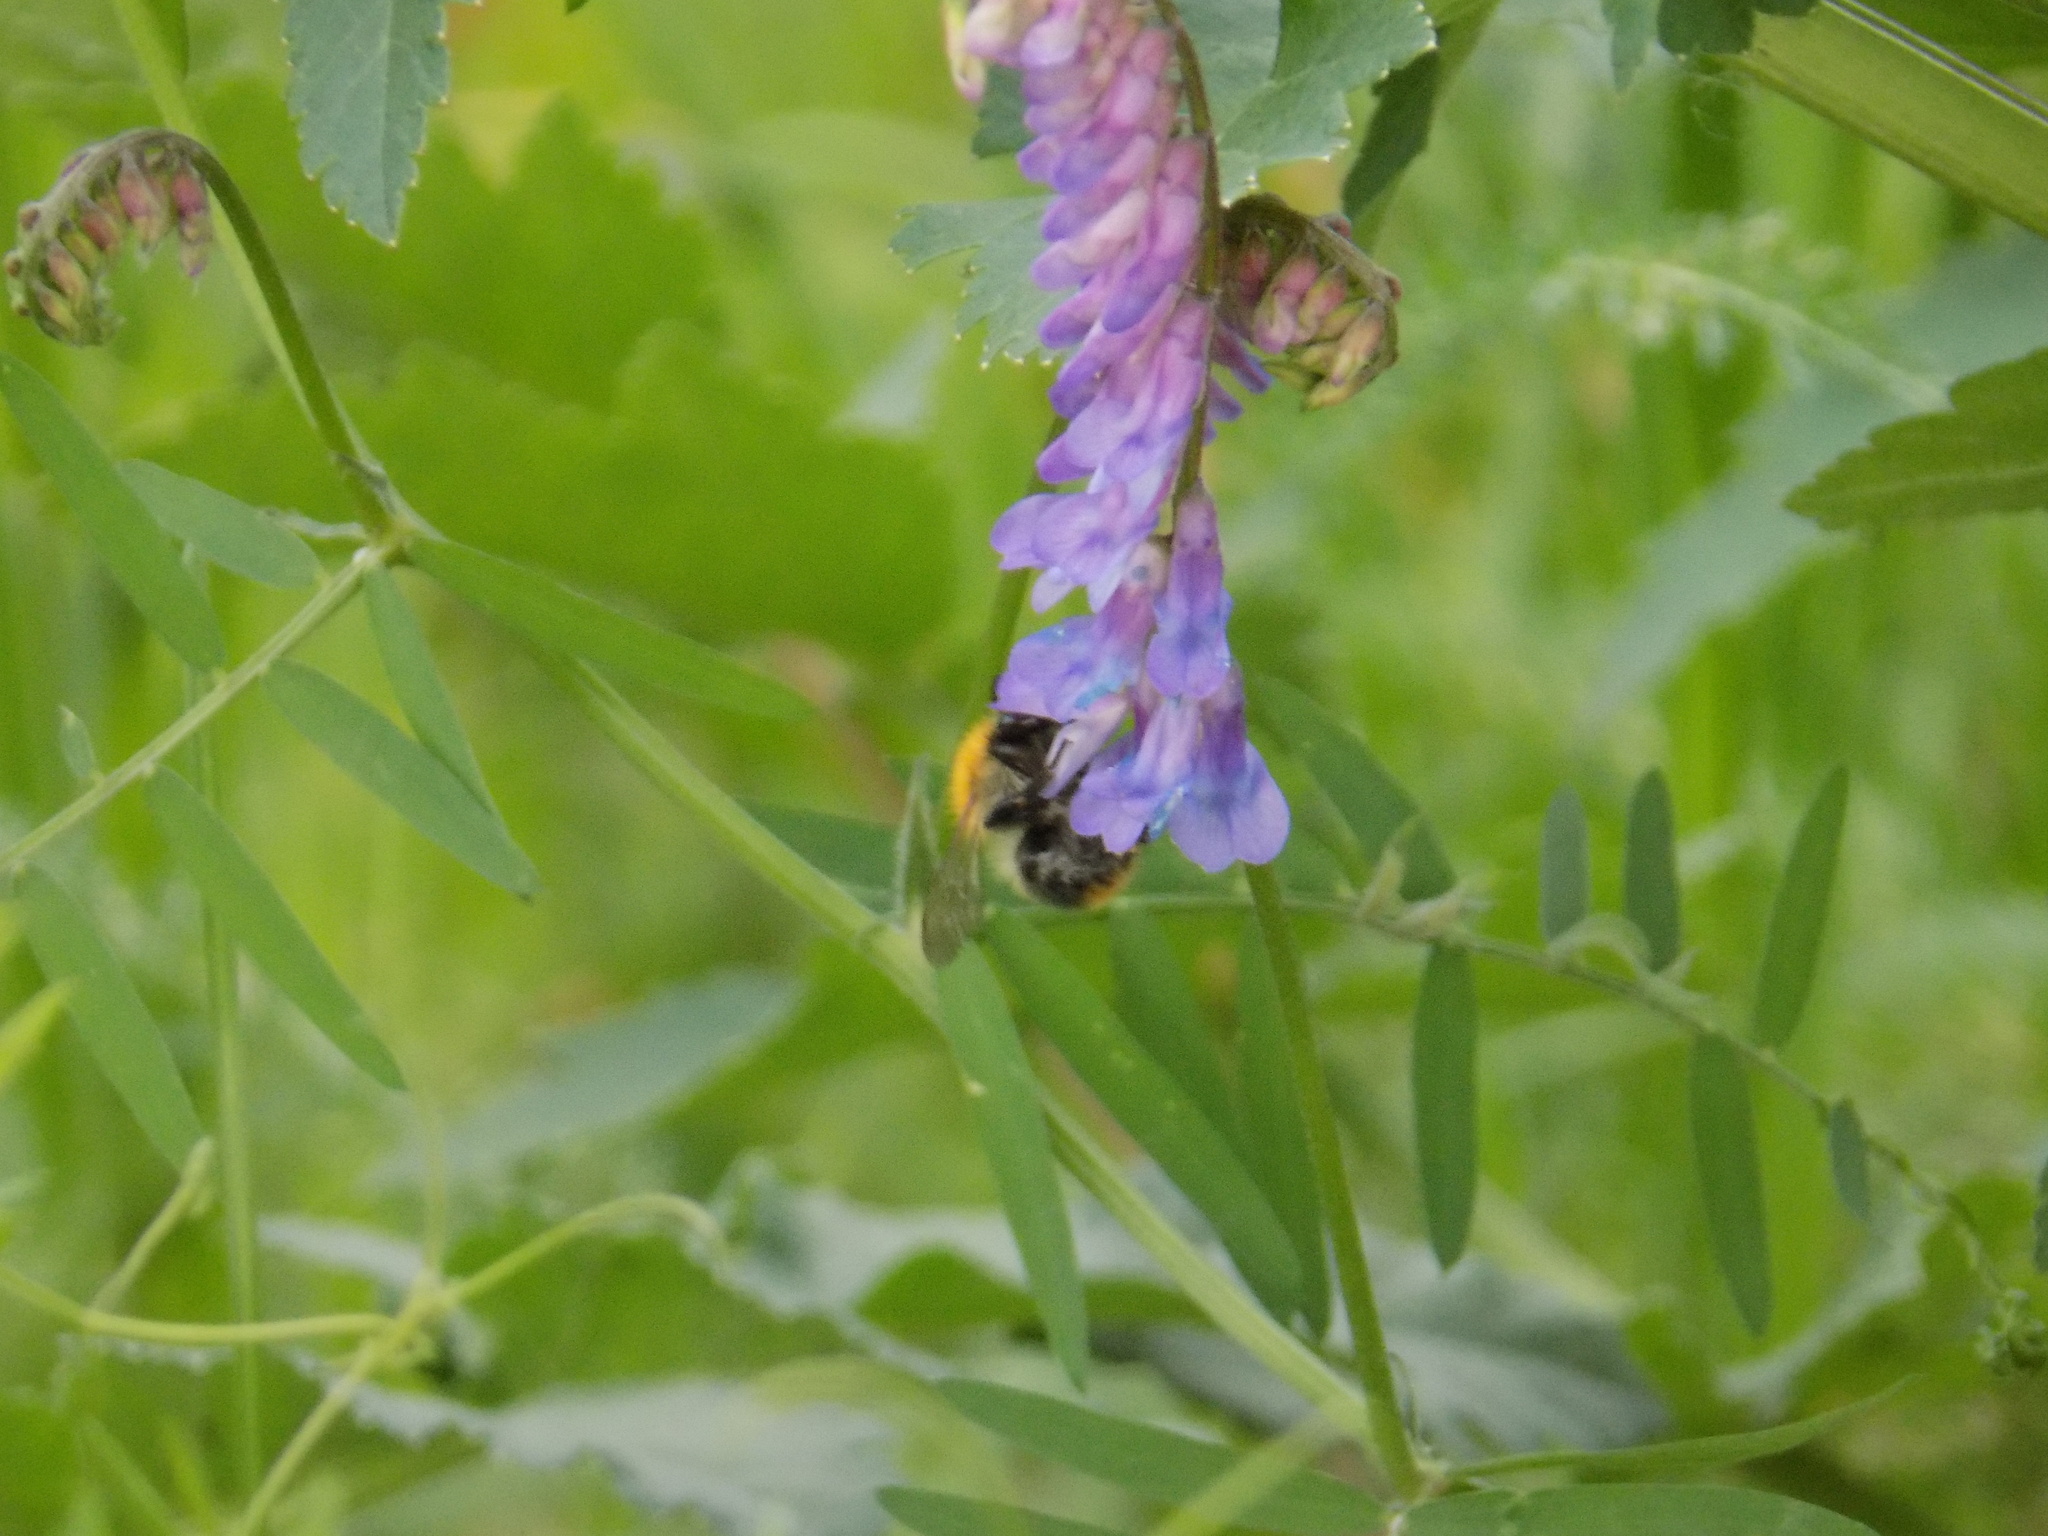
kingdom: Animalia
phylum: Arthropoda
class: Insecta
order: Hymenoptera
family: Apidae
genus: Bombus
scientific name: Bombus pascuorum
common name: Common carder bee
